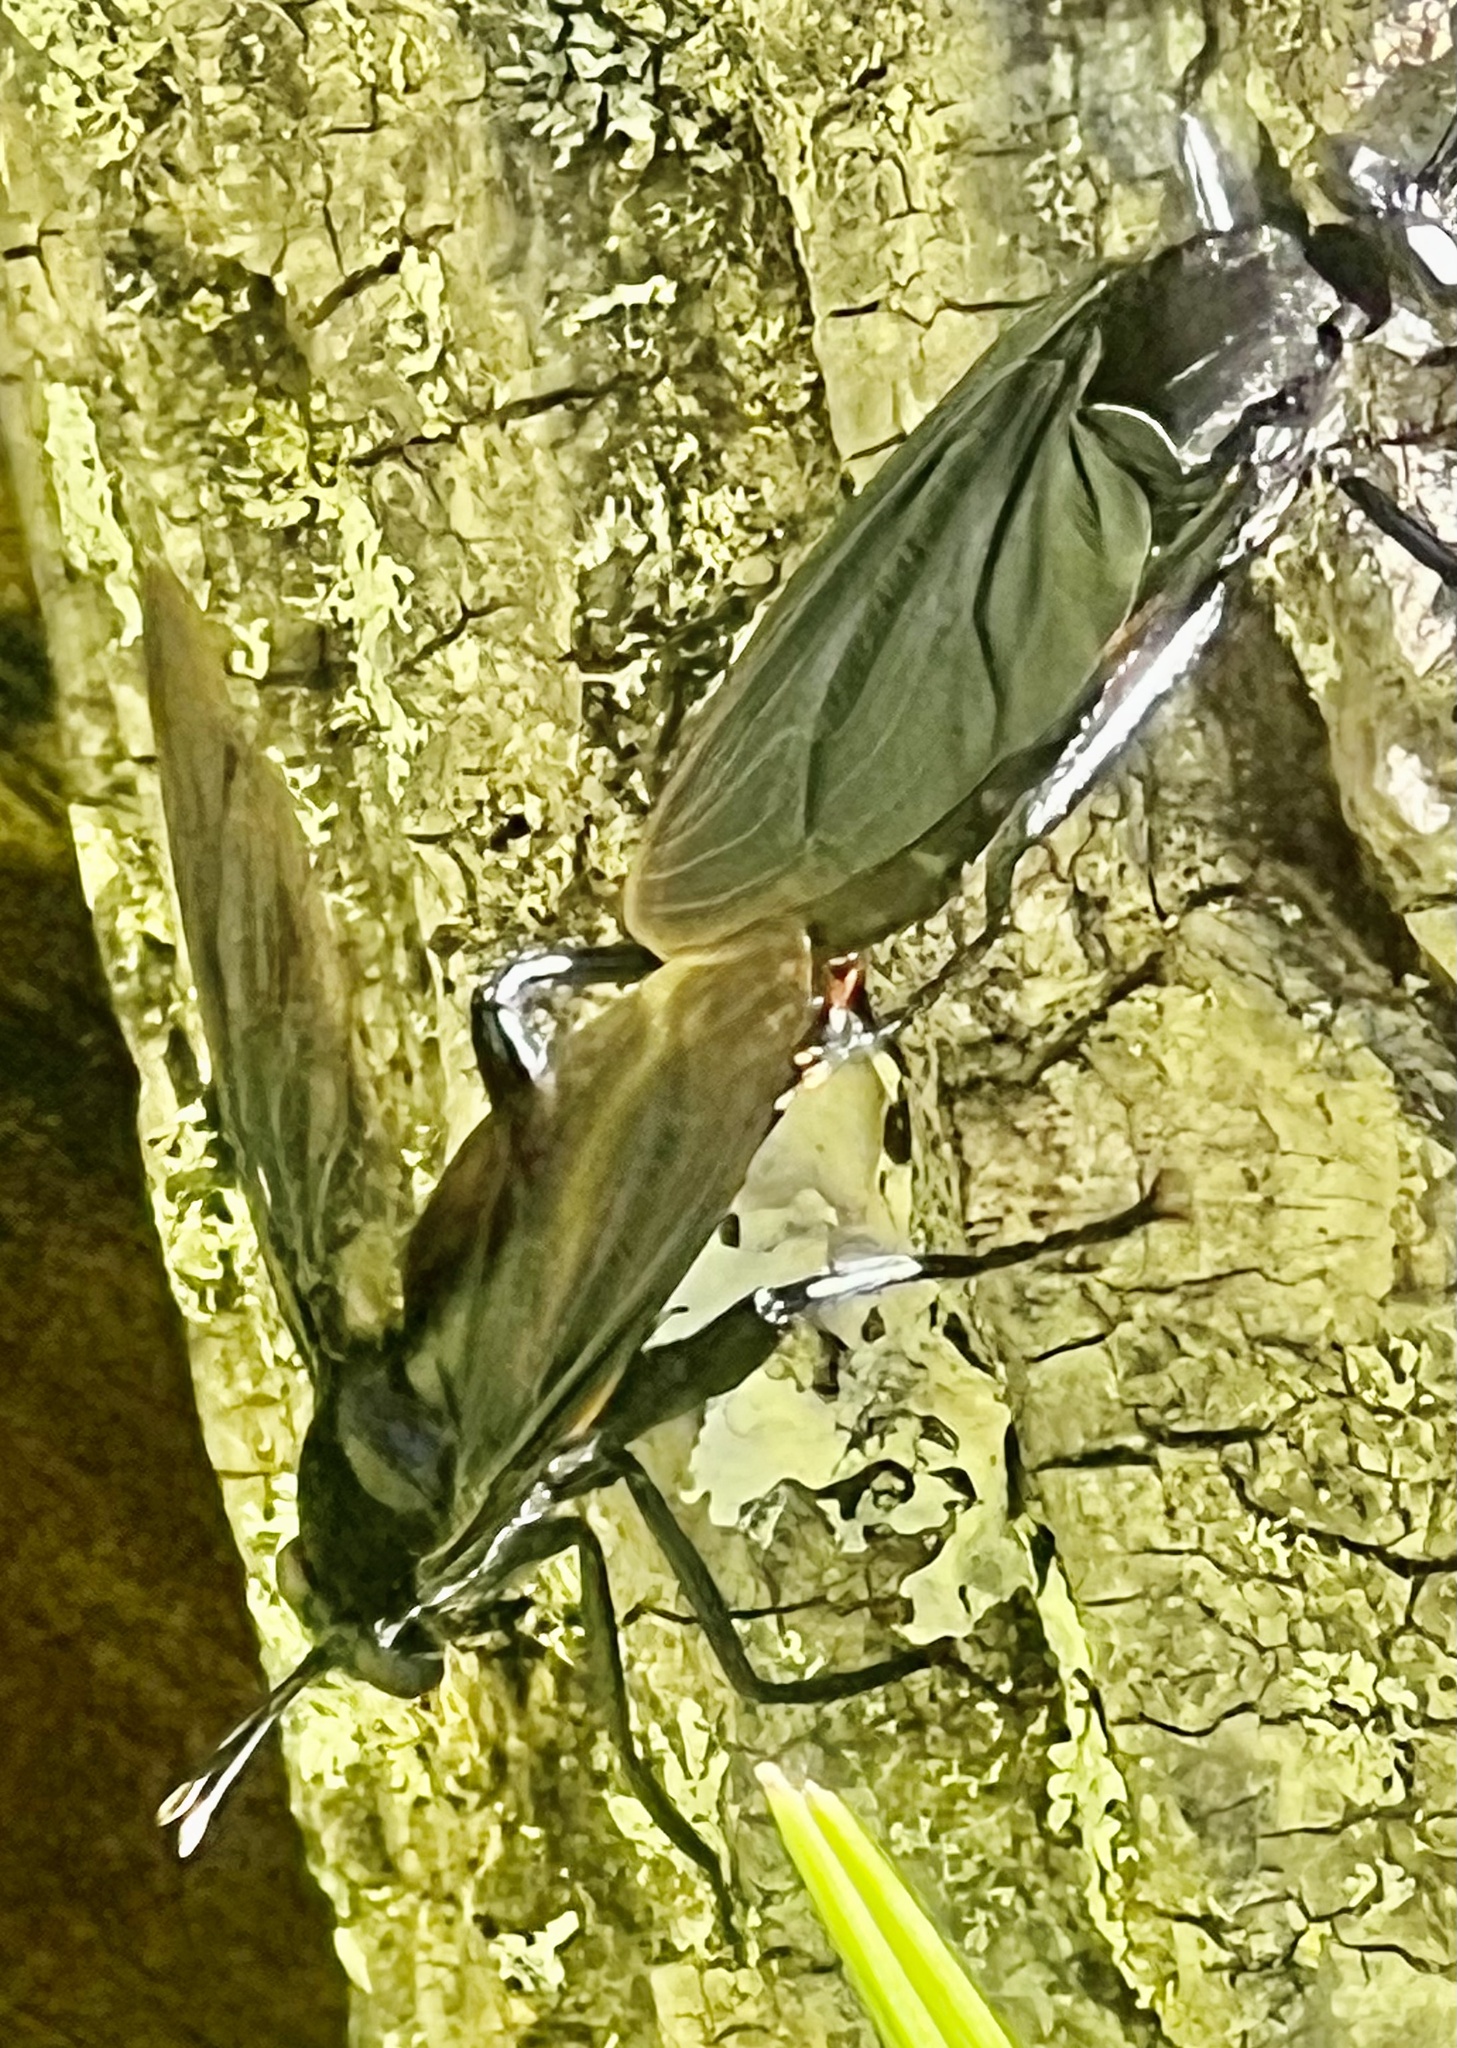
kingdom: Animalia
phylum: Arthropoda
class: Insecta
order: Diptera
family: Mydidae
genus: Mydas
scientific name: Mydas clavatus
